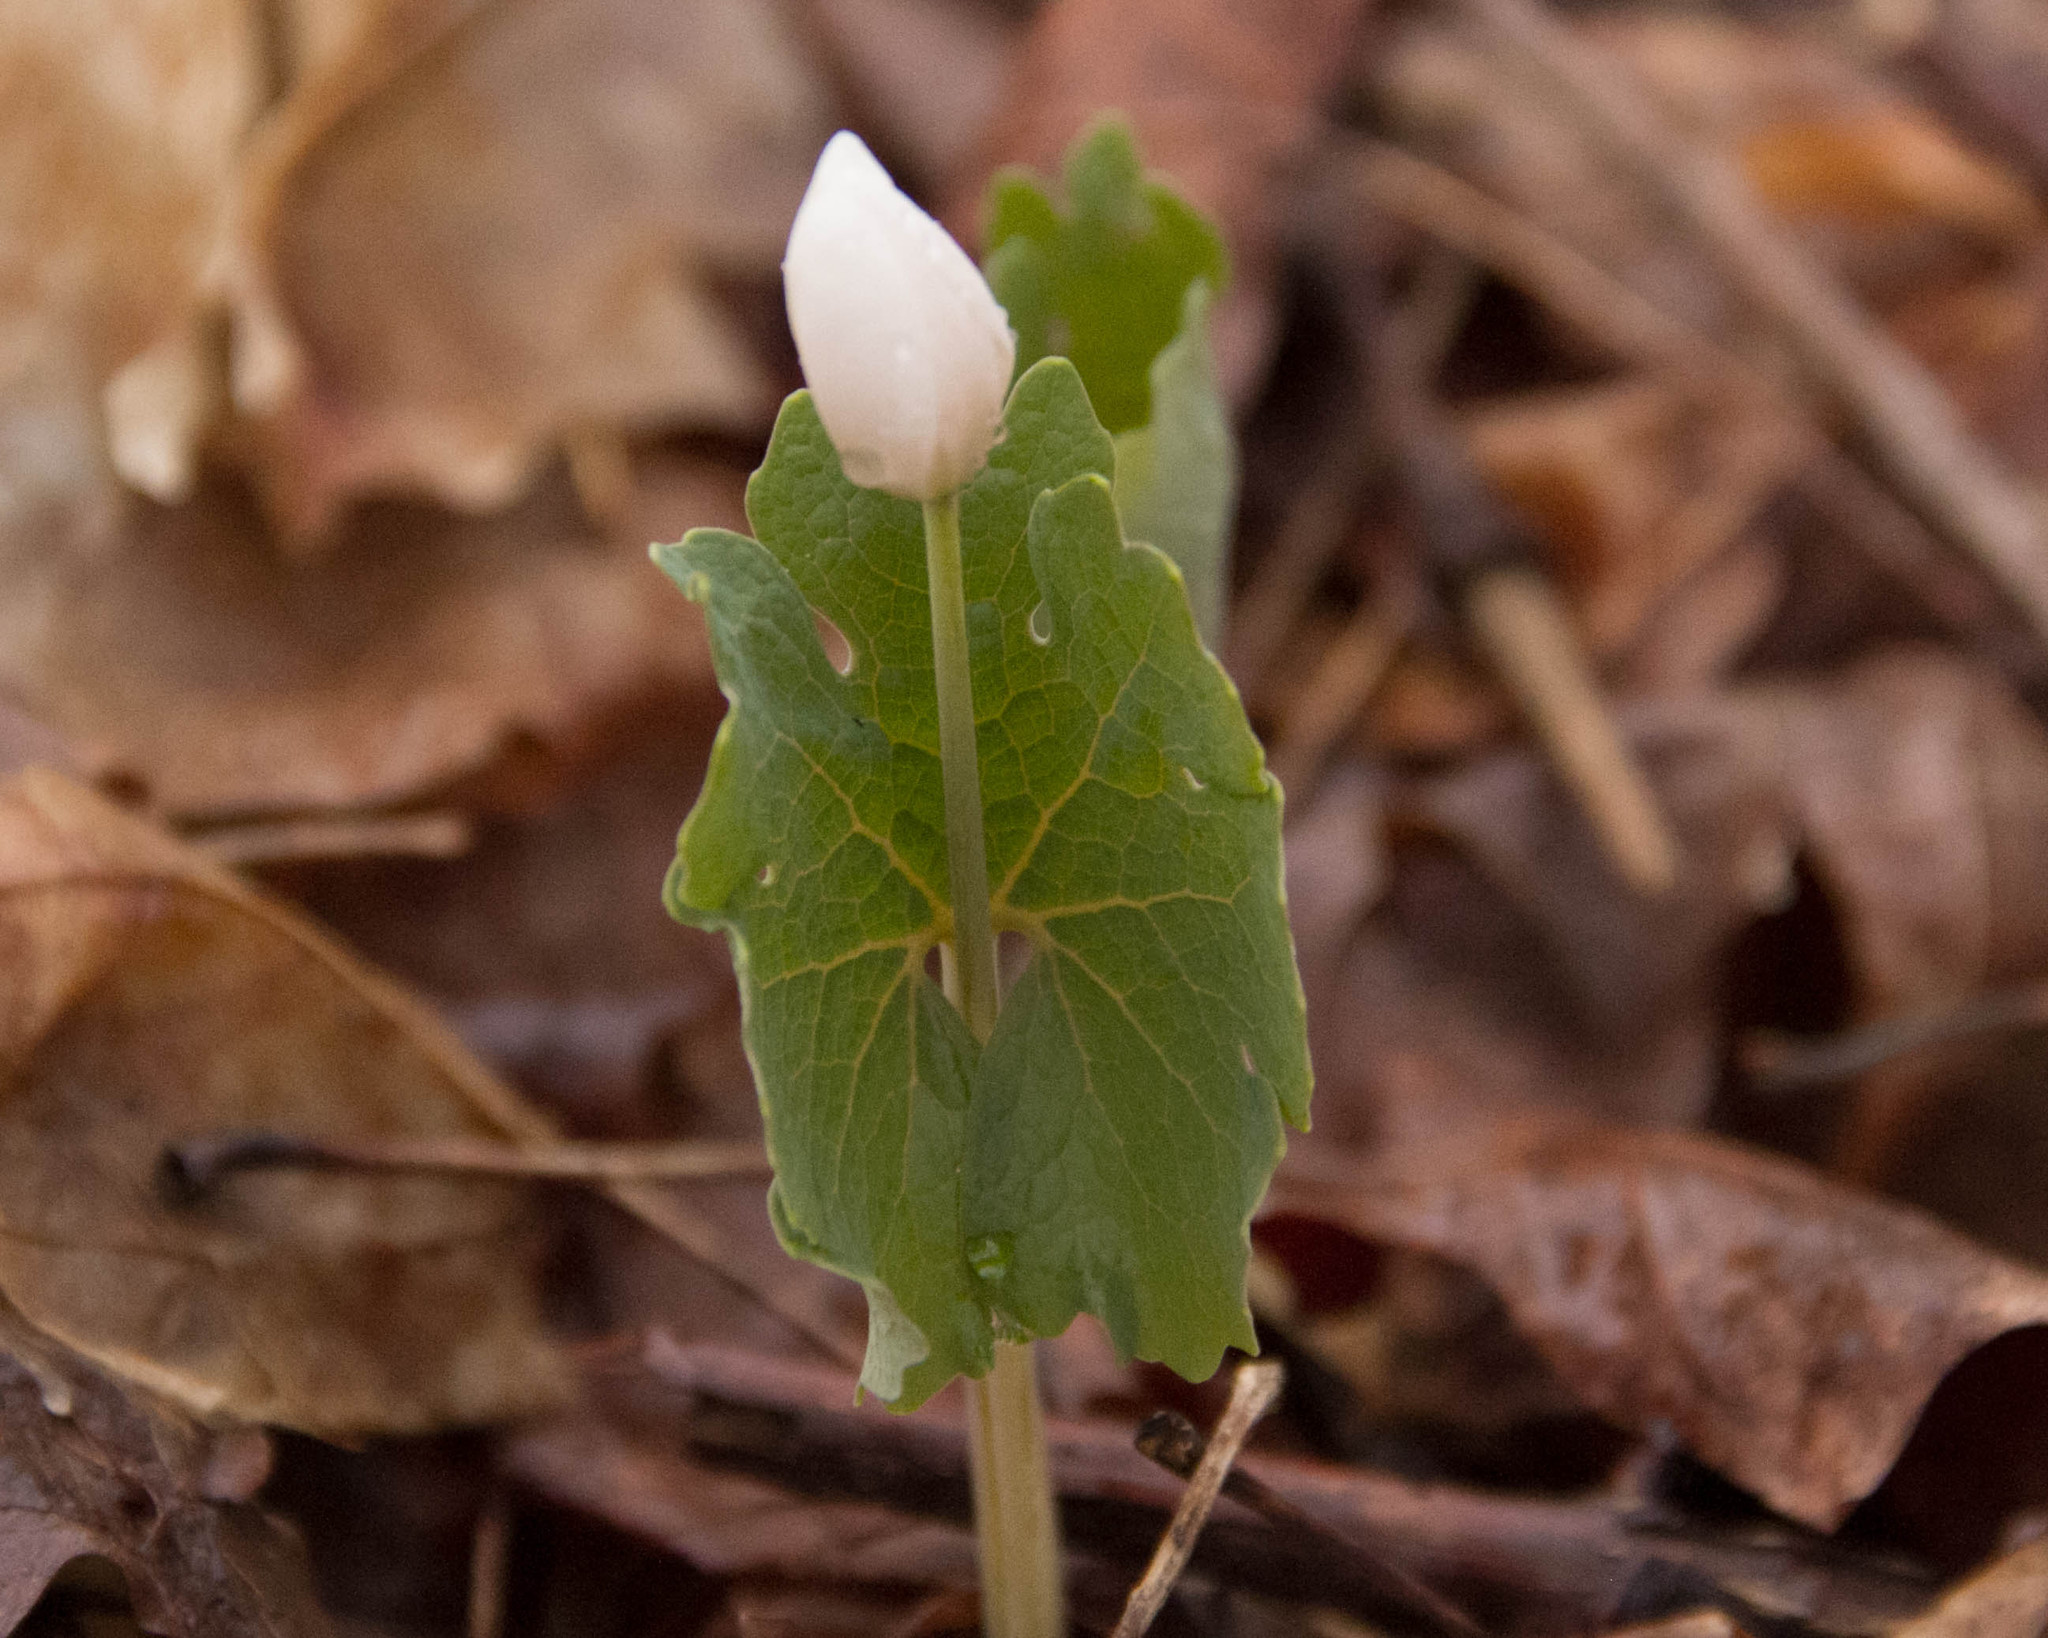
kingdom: Plantae
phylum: Tracheophyta
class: Magnoliopsida
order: Ranunculales
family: Papaveraceae
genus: Sanguinaria
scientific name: Sanguinaria canadensis
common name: Bloodroot
